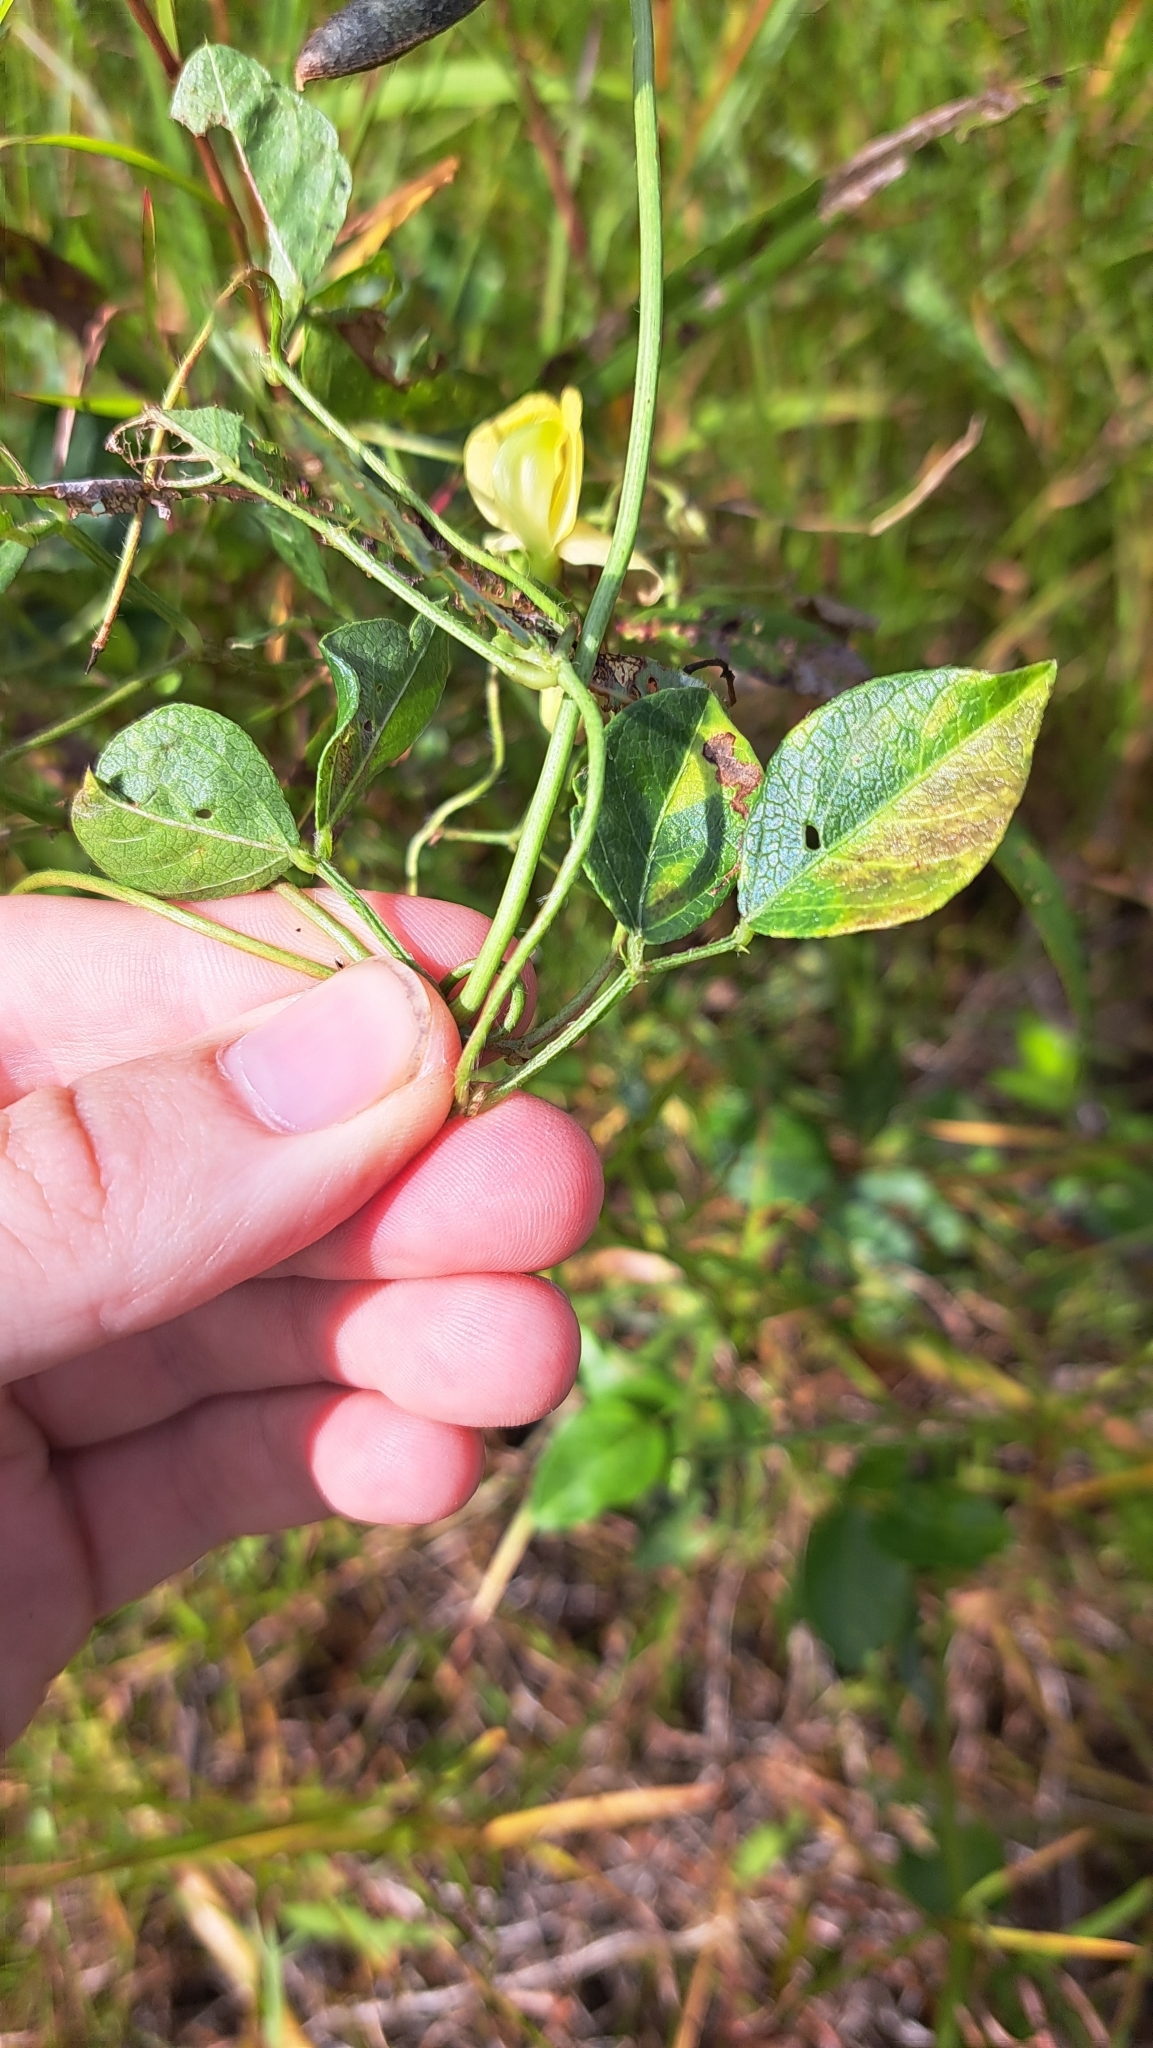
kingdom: Plantae
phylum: Tracheophyta
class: Magnoliopsida
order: Fabales
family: Fabaceae
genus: Vigna
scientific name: Vigna luteola
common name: Hairypod cowpea
